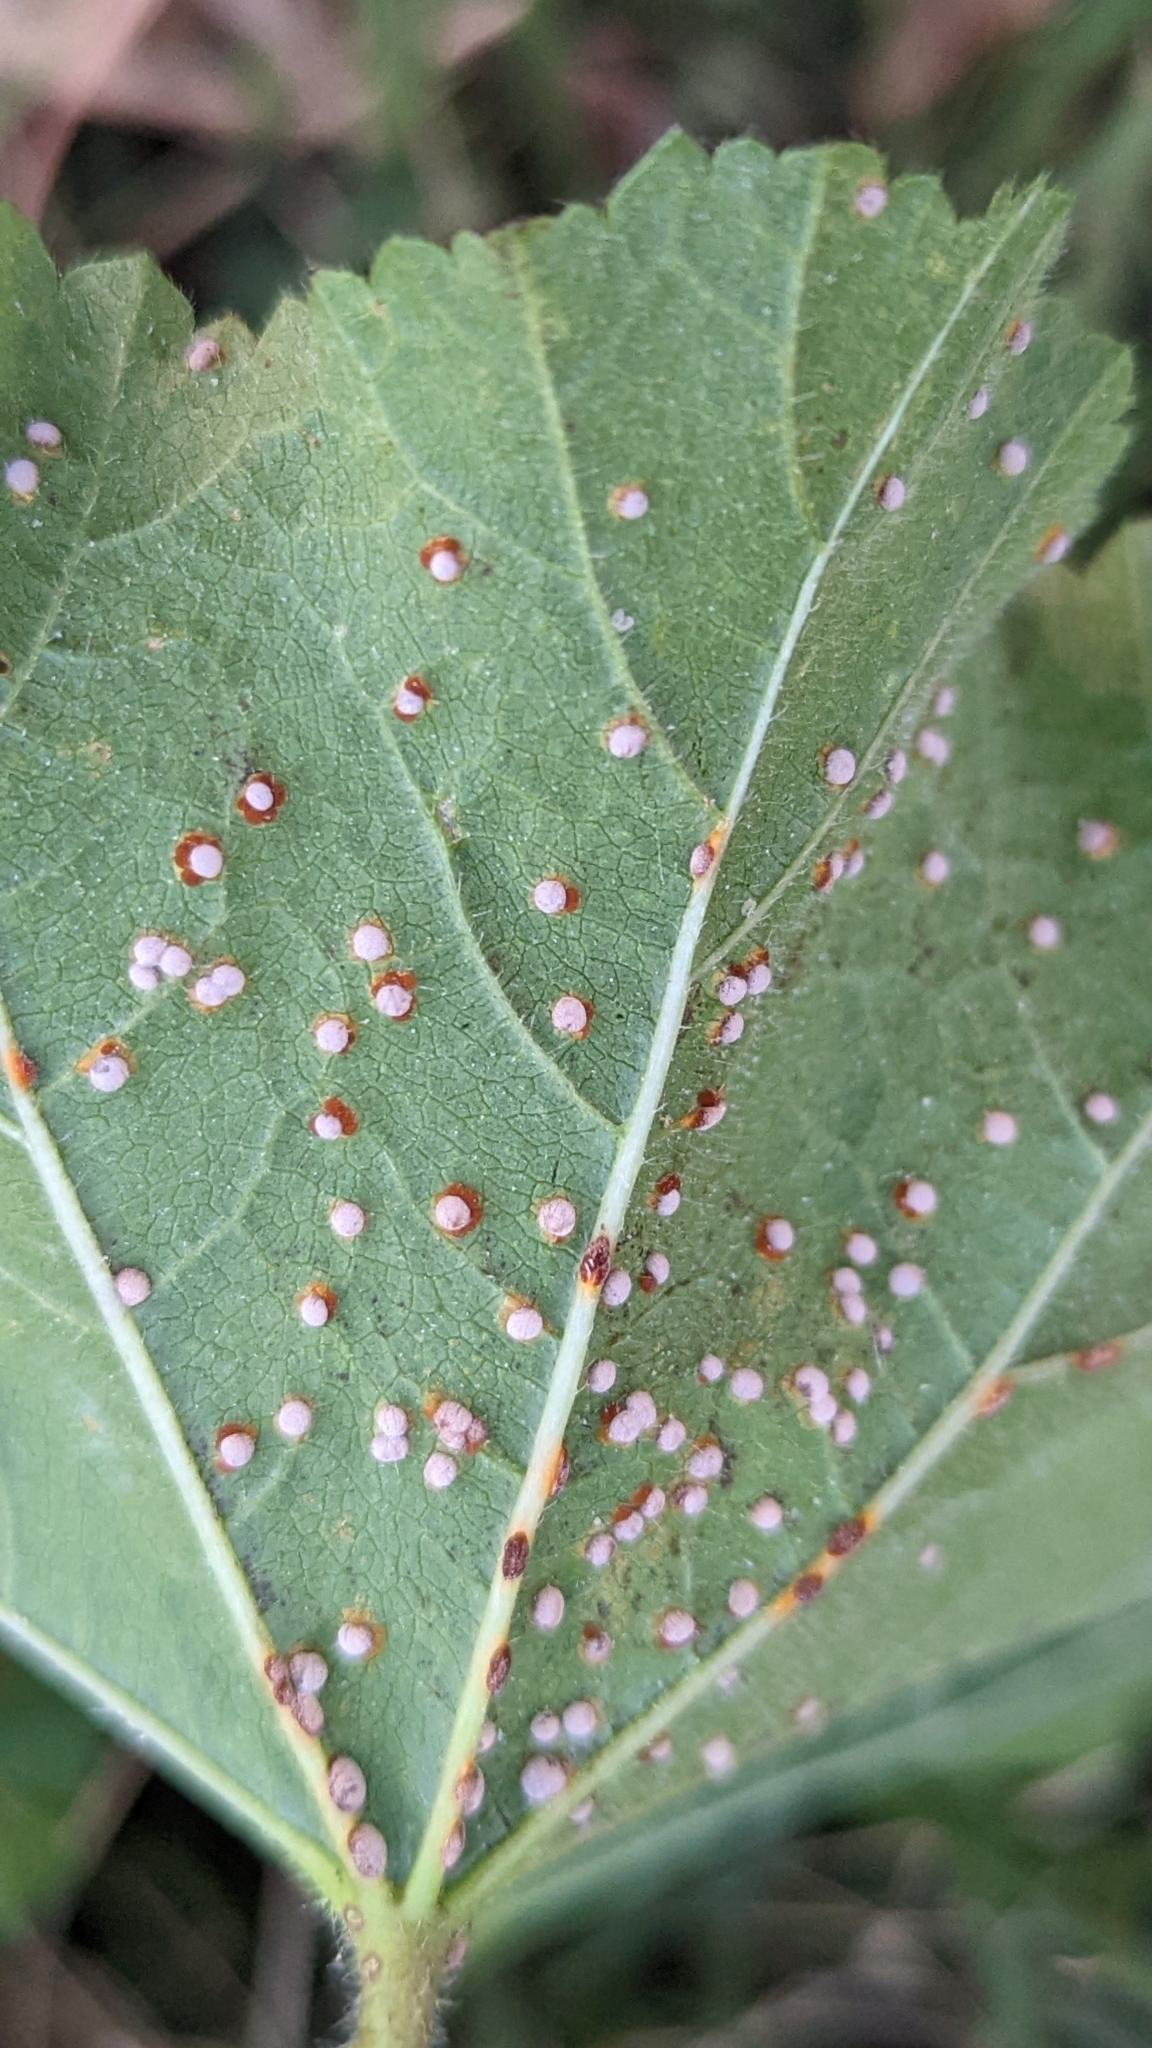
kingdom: Fungi
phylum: Basidiomycota
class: Pucciniomycetes
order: Pucciniales
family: Pucciniaceae
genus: Puccinia
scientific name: Puccinia malvacearum
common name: Hollyhock rust
